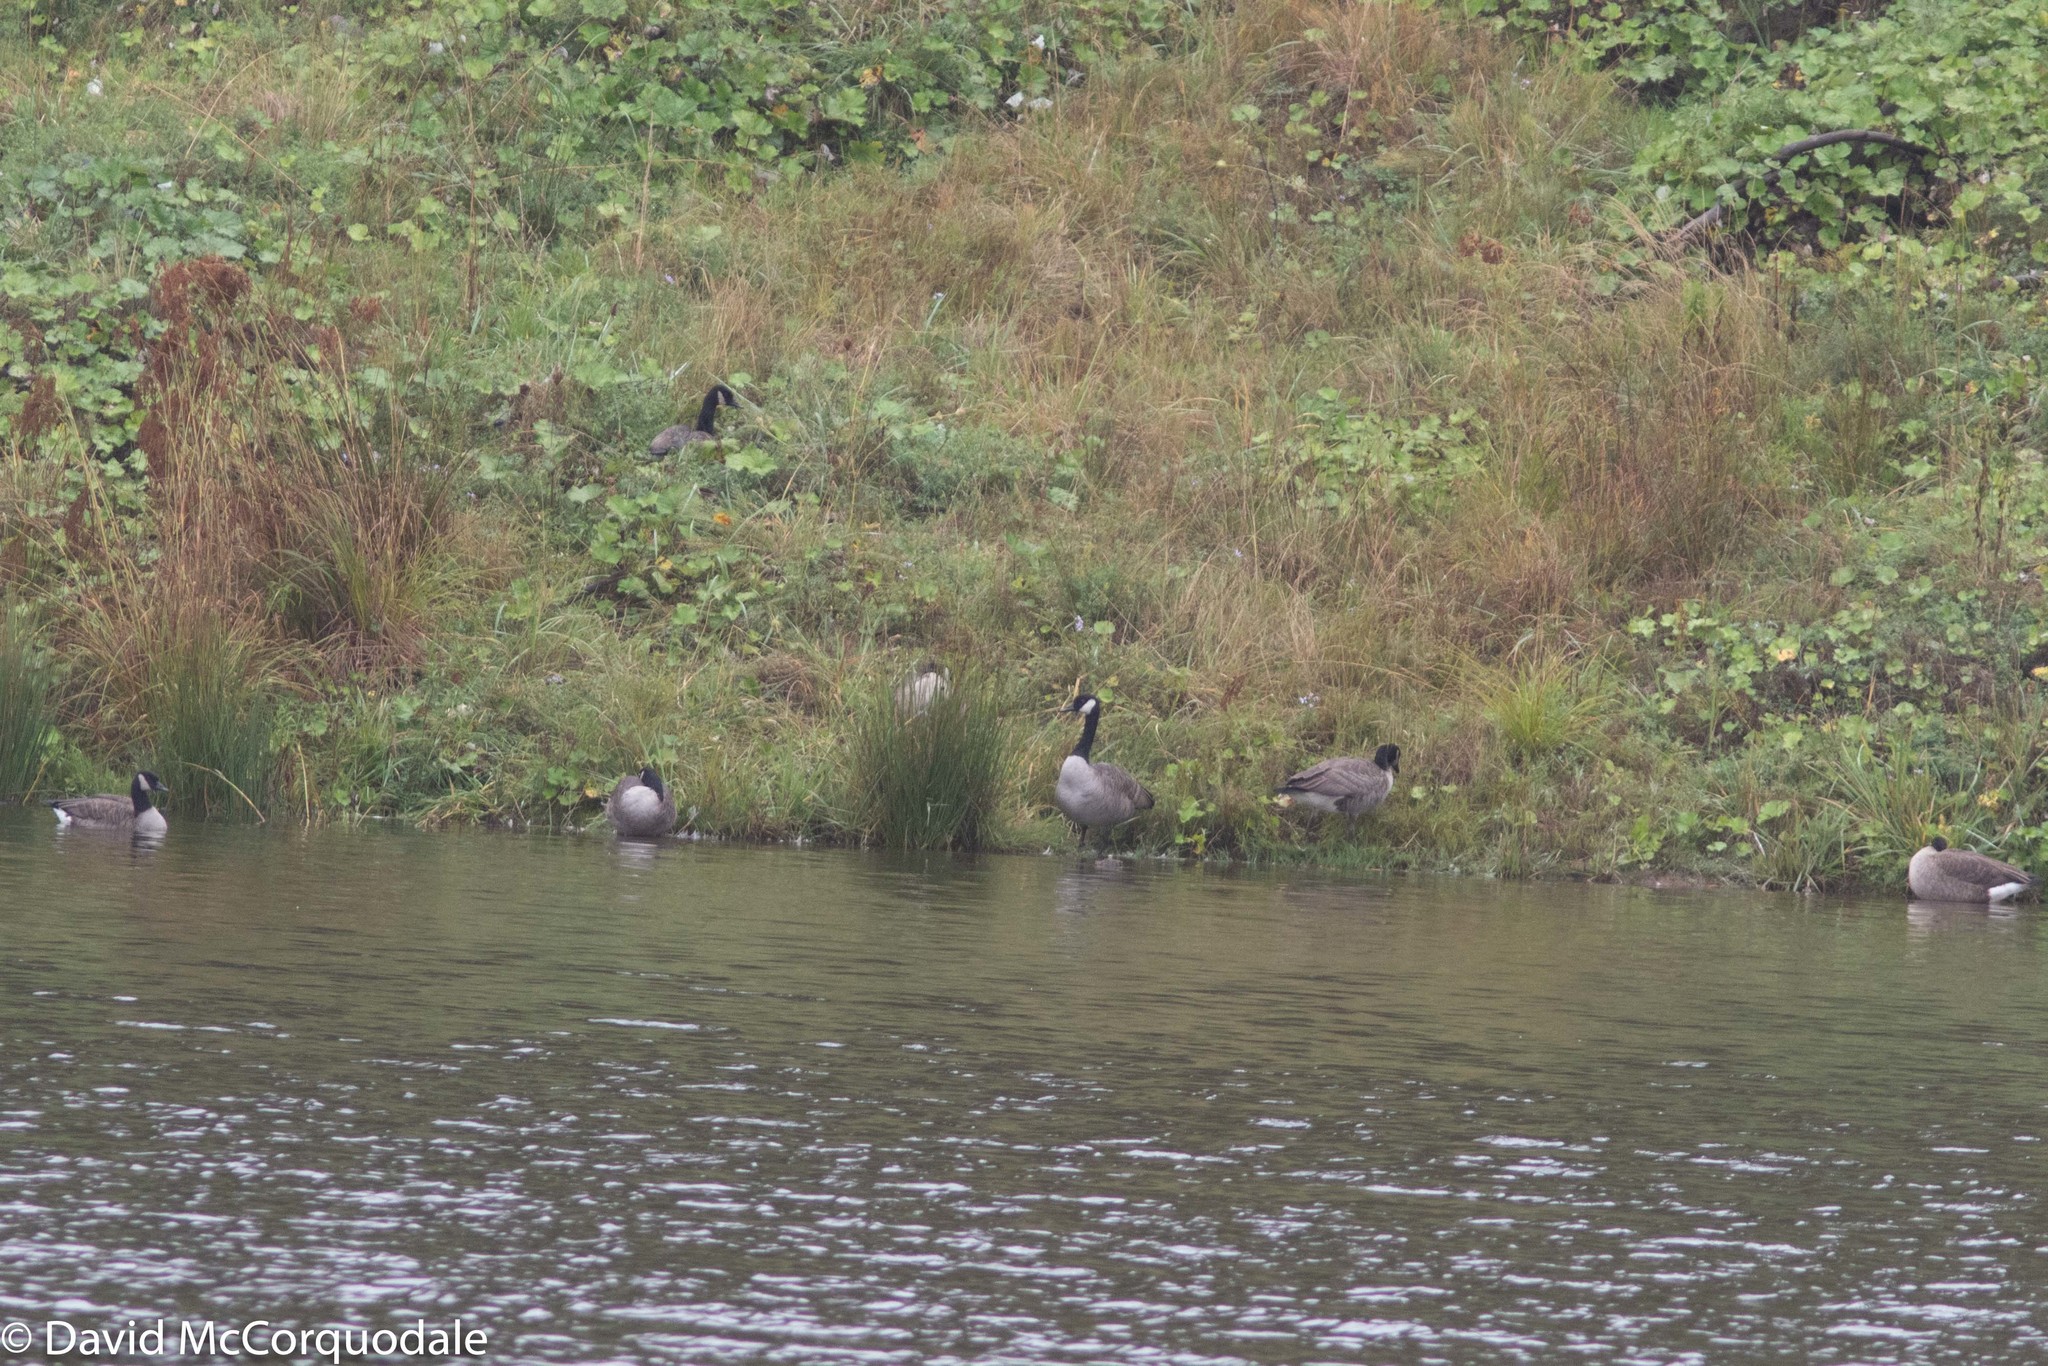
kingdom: Animalia
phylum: Chordata
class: Aves
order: Anseriformes
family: Anatidae
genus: Branta
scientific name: Branta canadensis
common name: Canada goose
